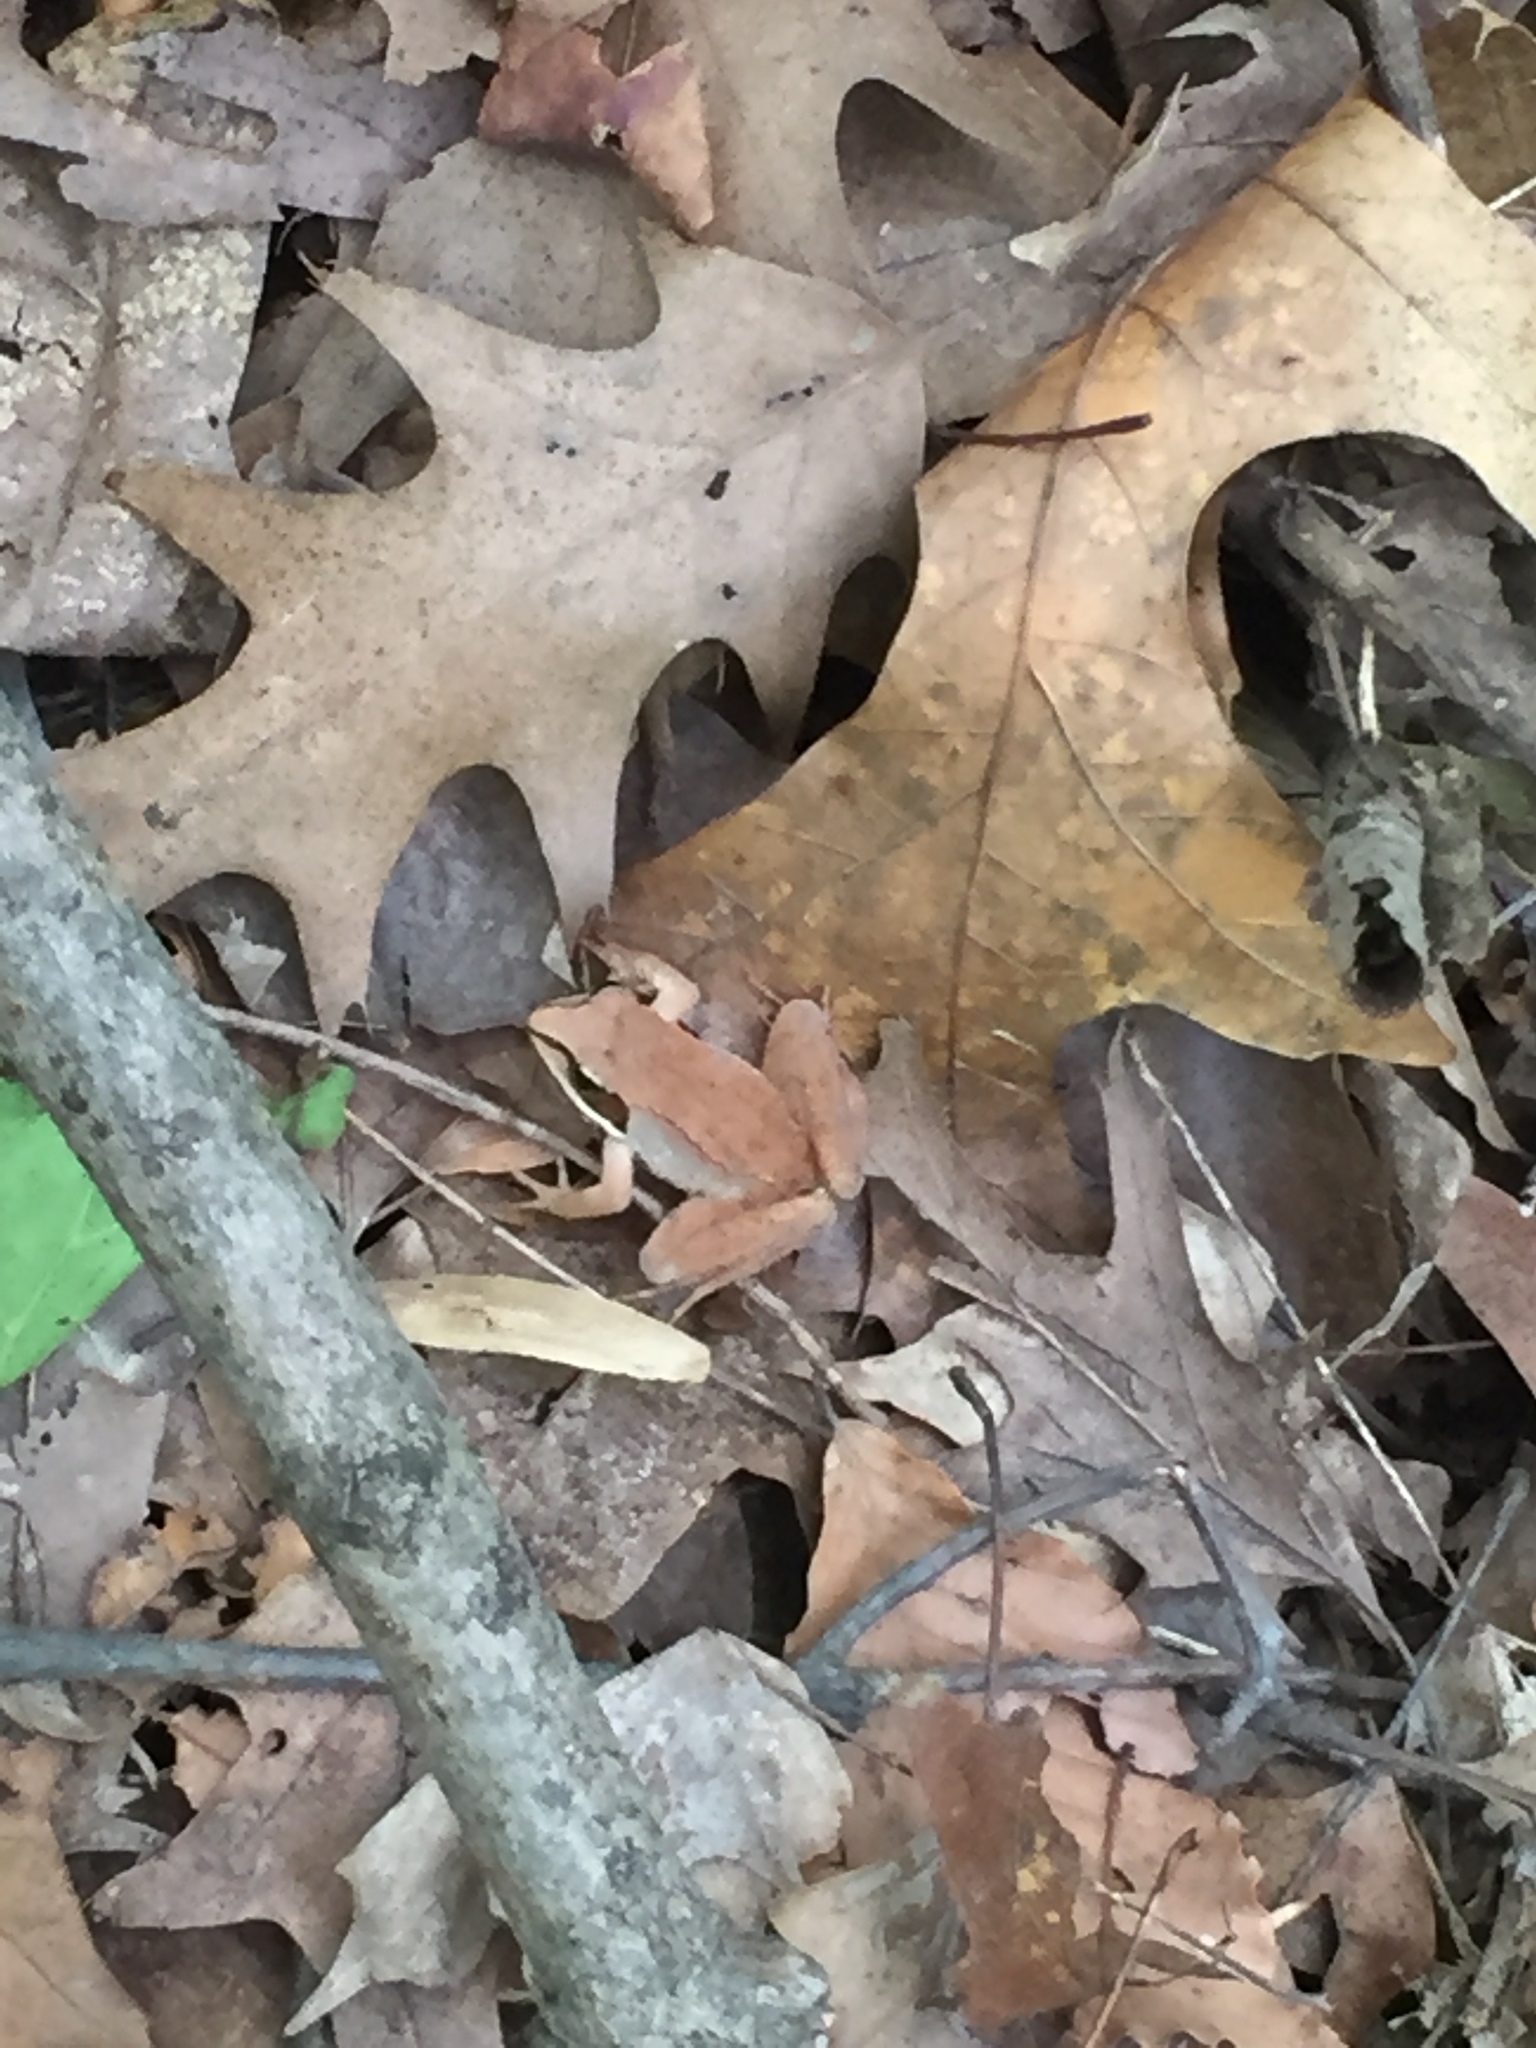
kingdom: Animalia
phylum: Chordata
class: Amphibia
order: Anura
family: Ranidae
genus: Lithobates
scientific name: Lithobates sylvaticus
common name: Wood frog
